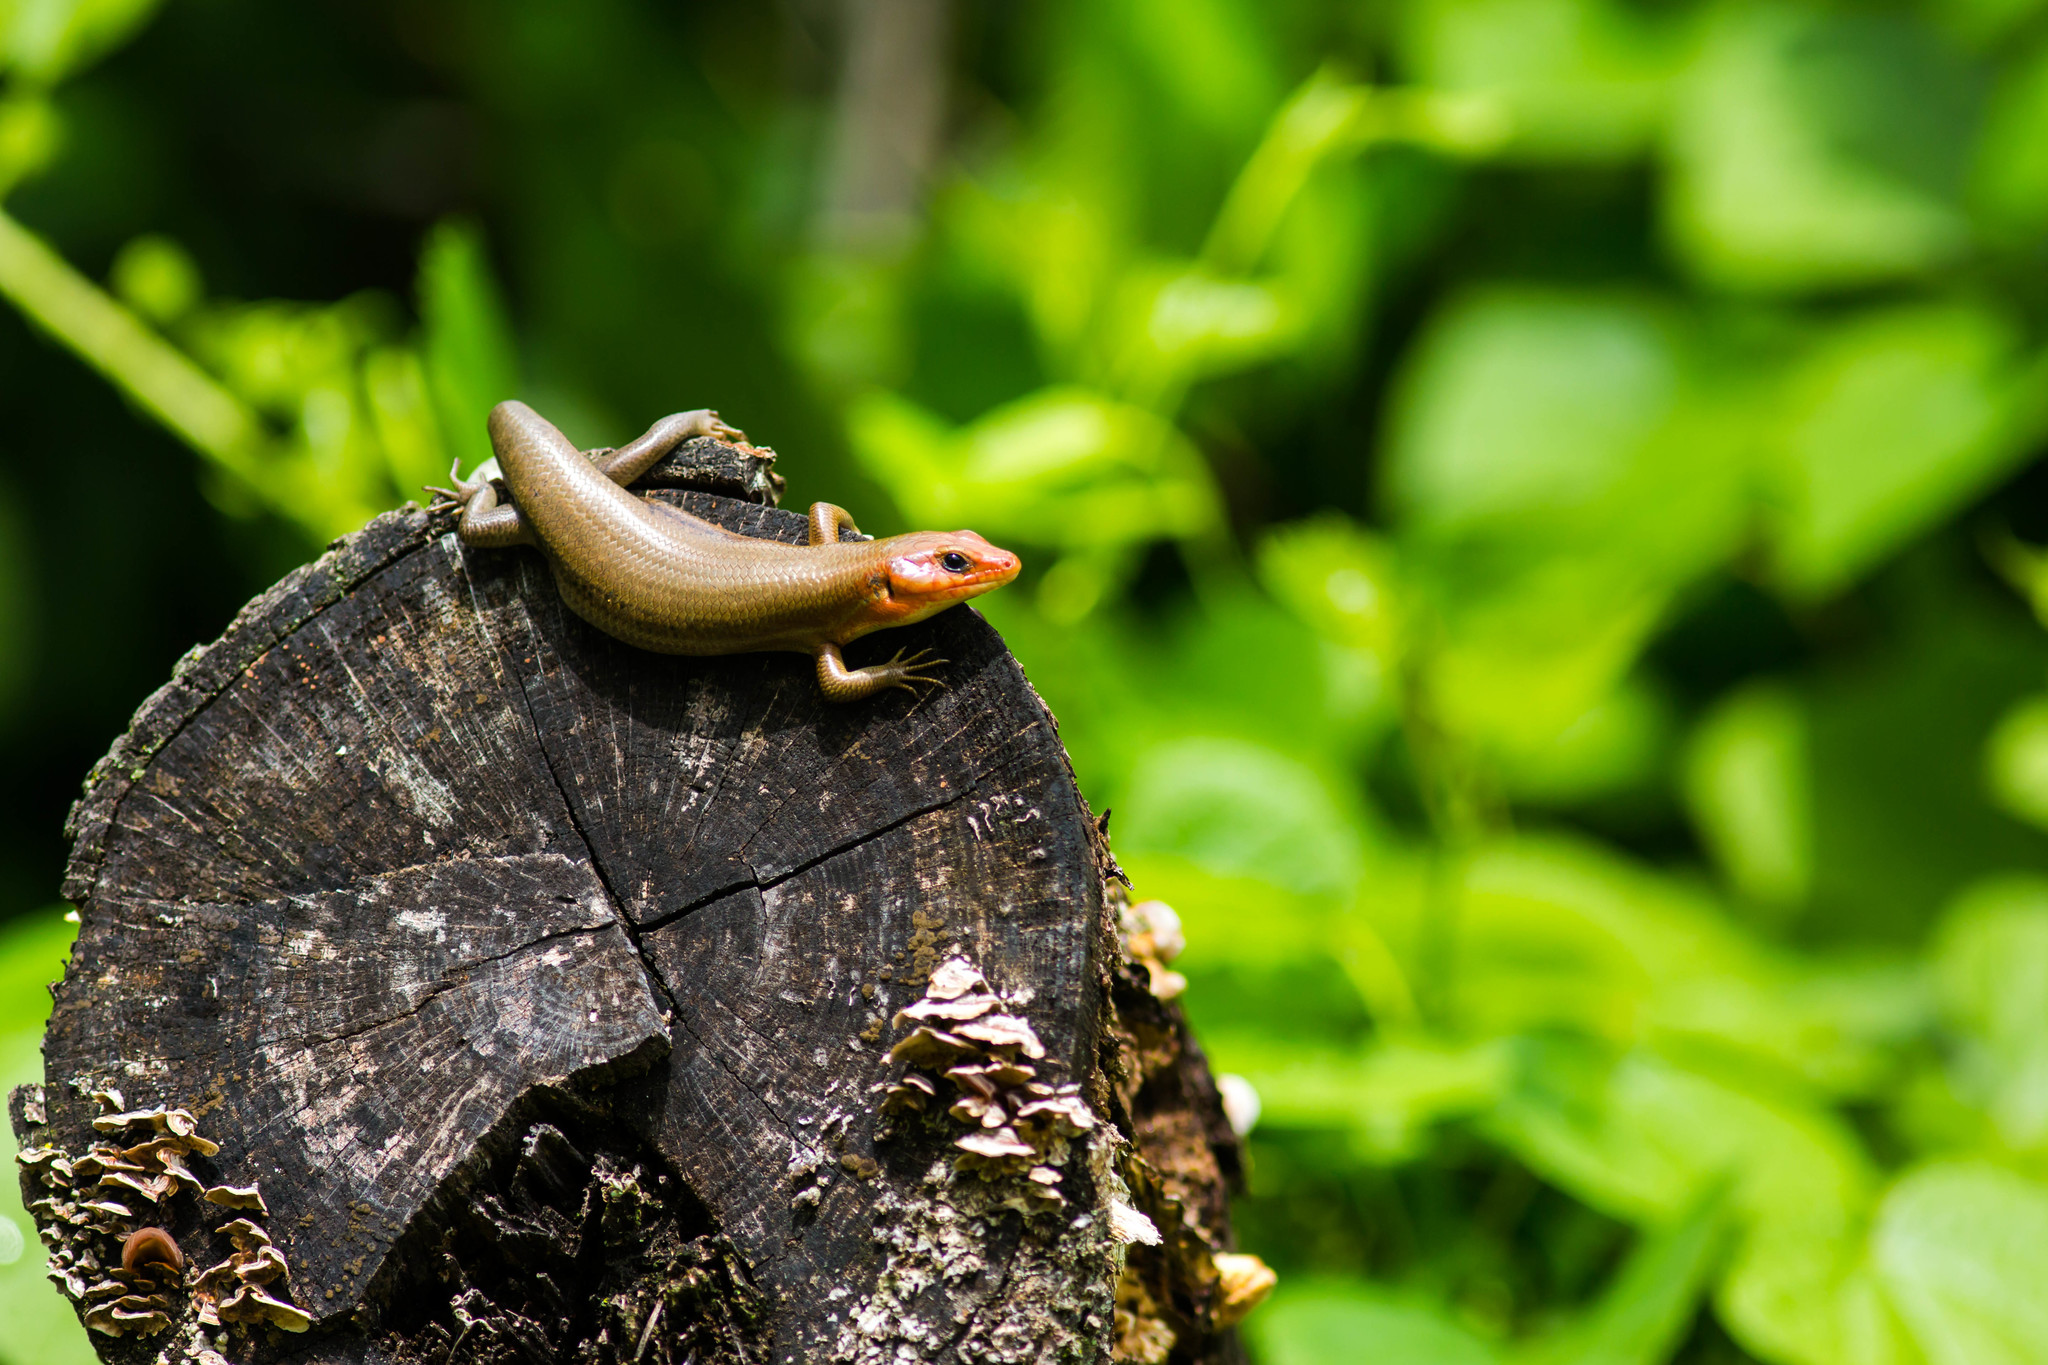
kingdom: Animalia
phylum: Chordata
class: Squamata
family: Scincidae
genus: Plestiodon
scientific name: Plestiodon laticeps
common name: Broadhead skink
